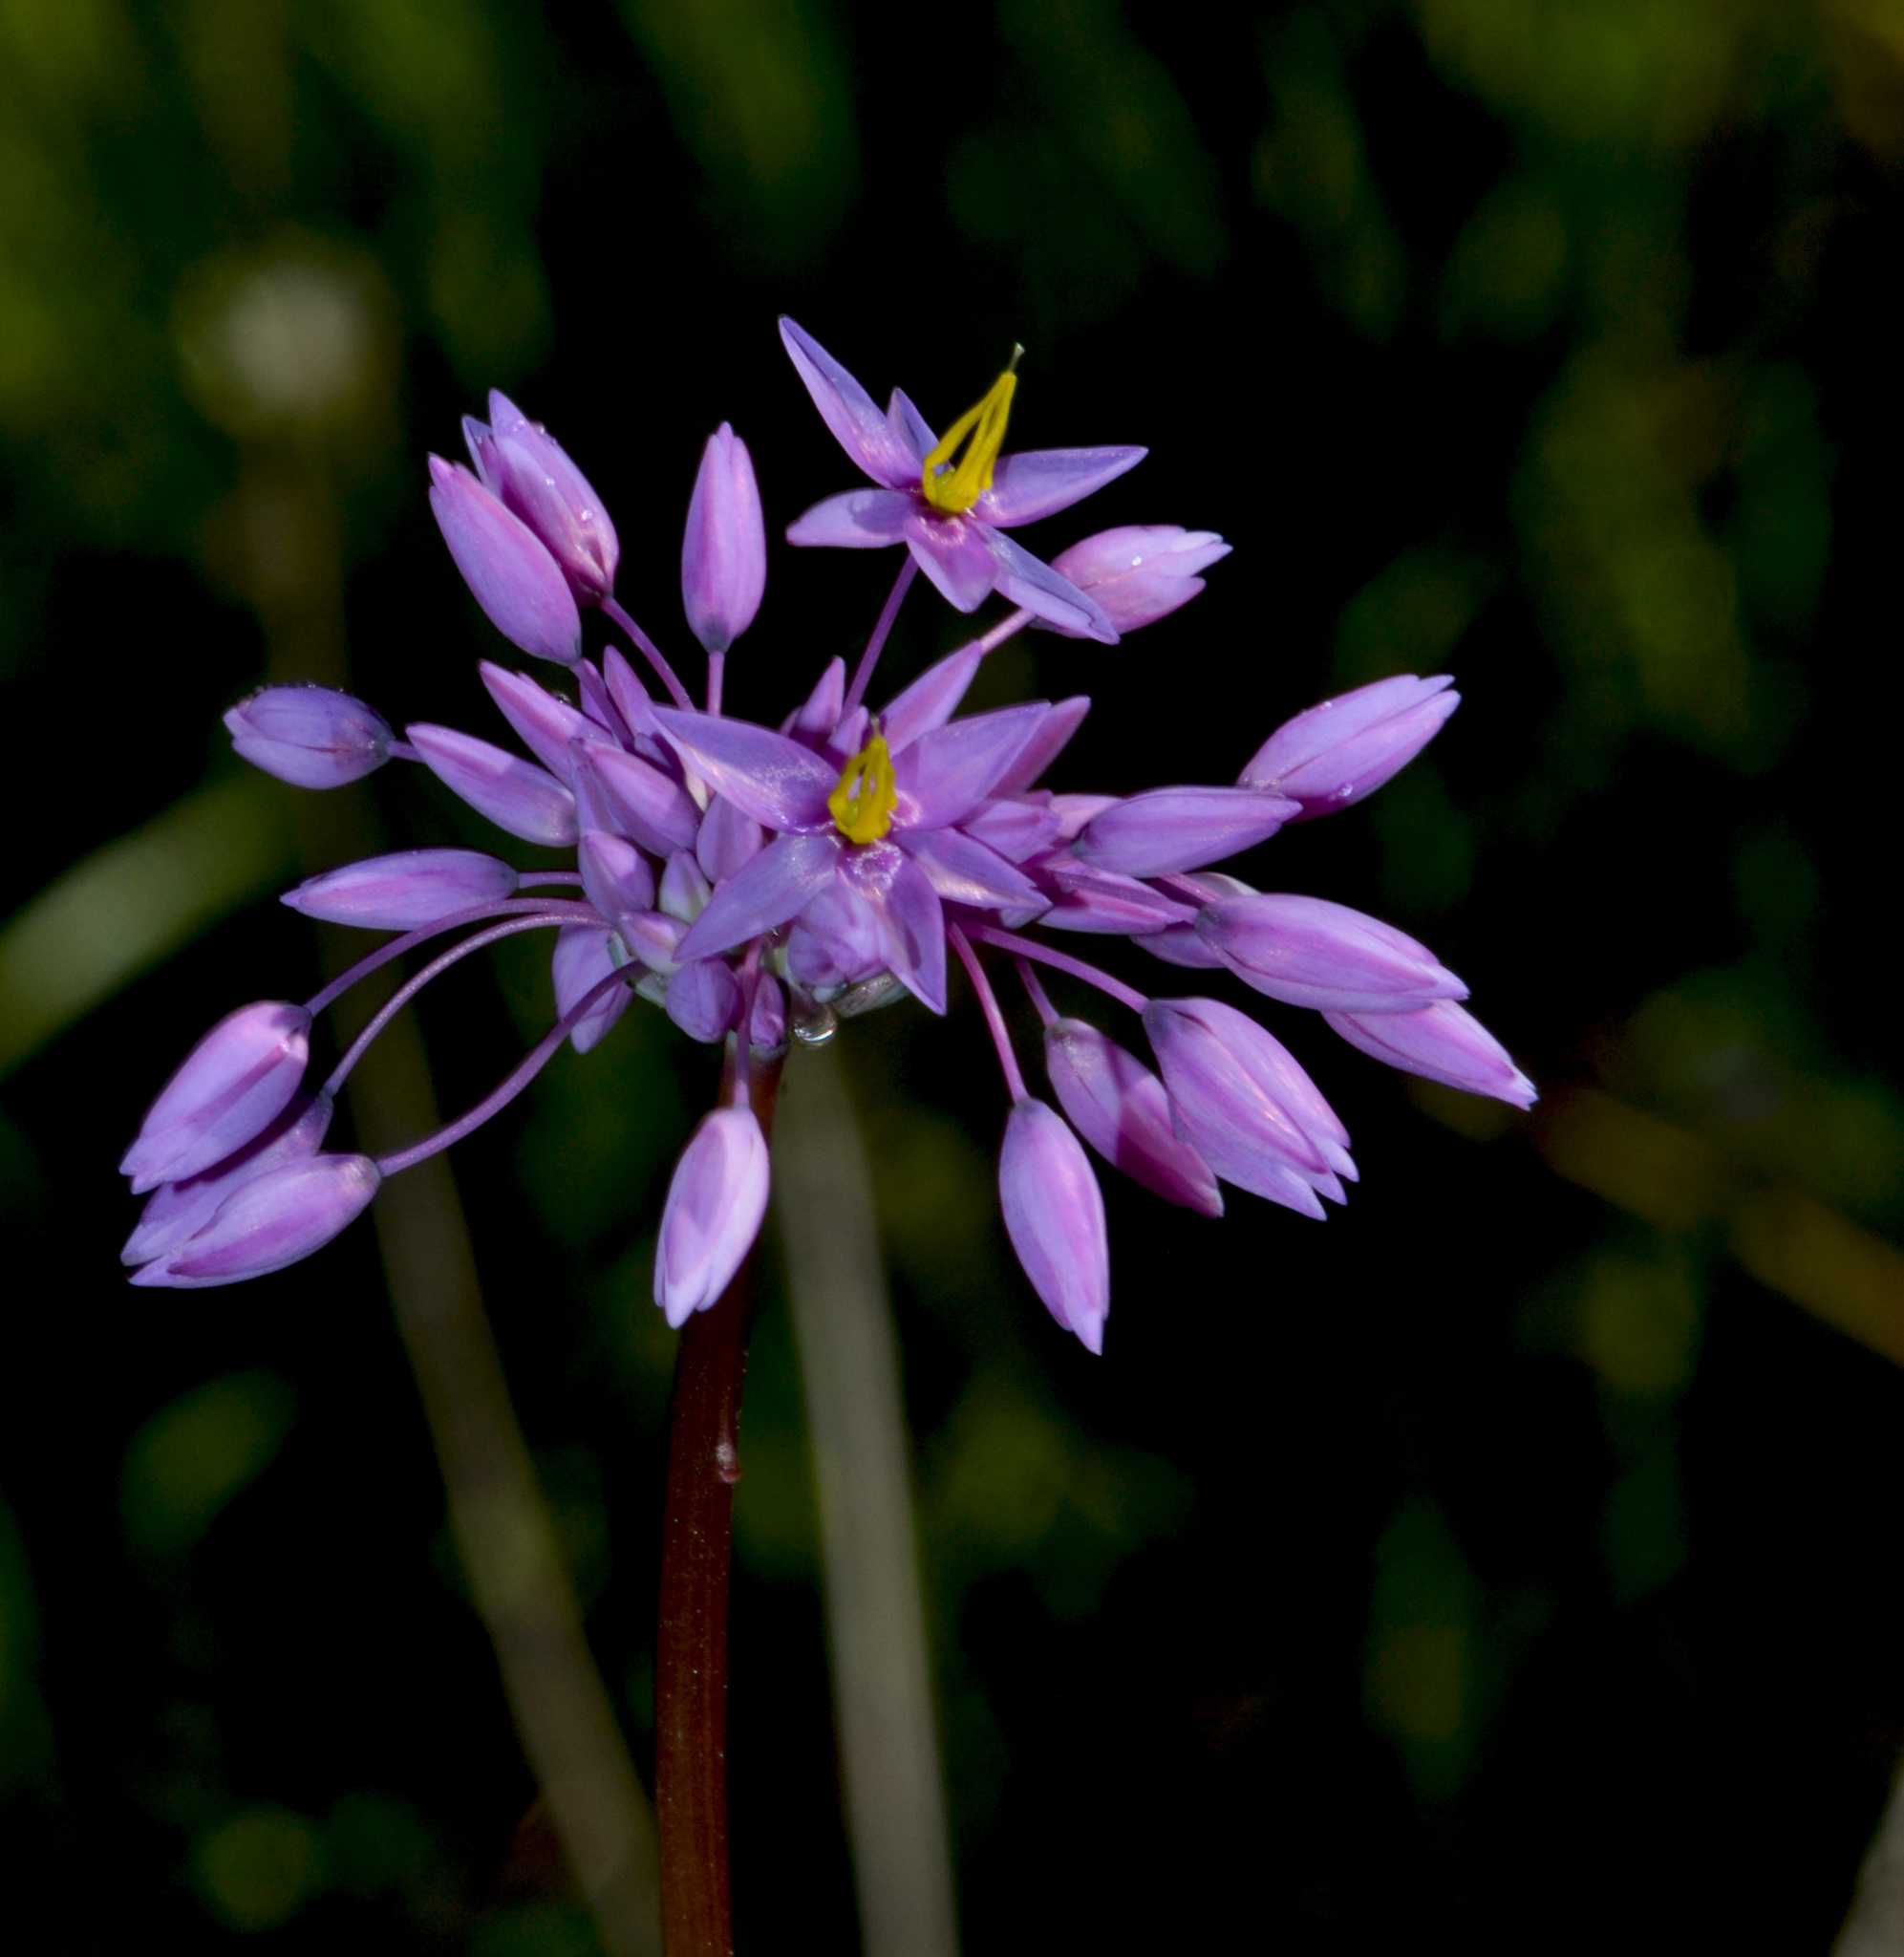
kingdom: Plantae
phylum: Tracheophyta
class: Liliopsida
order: Asparagales
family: Asparagaceae
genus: Sowerbaea
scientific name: Sowerbaea laxiflora
